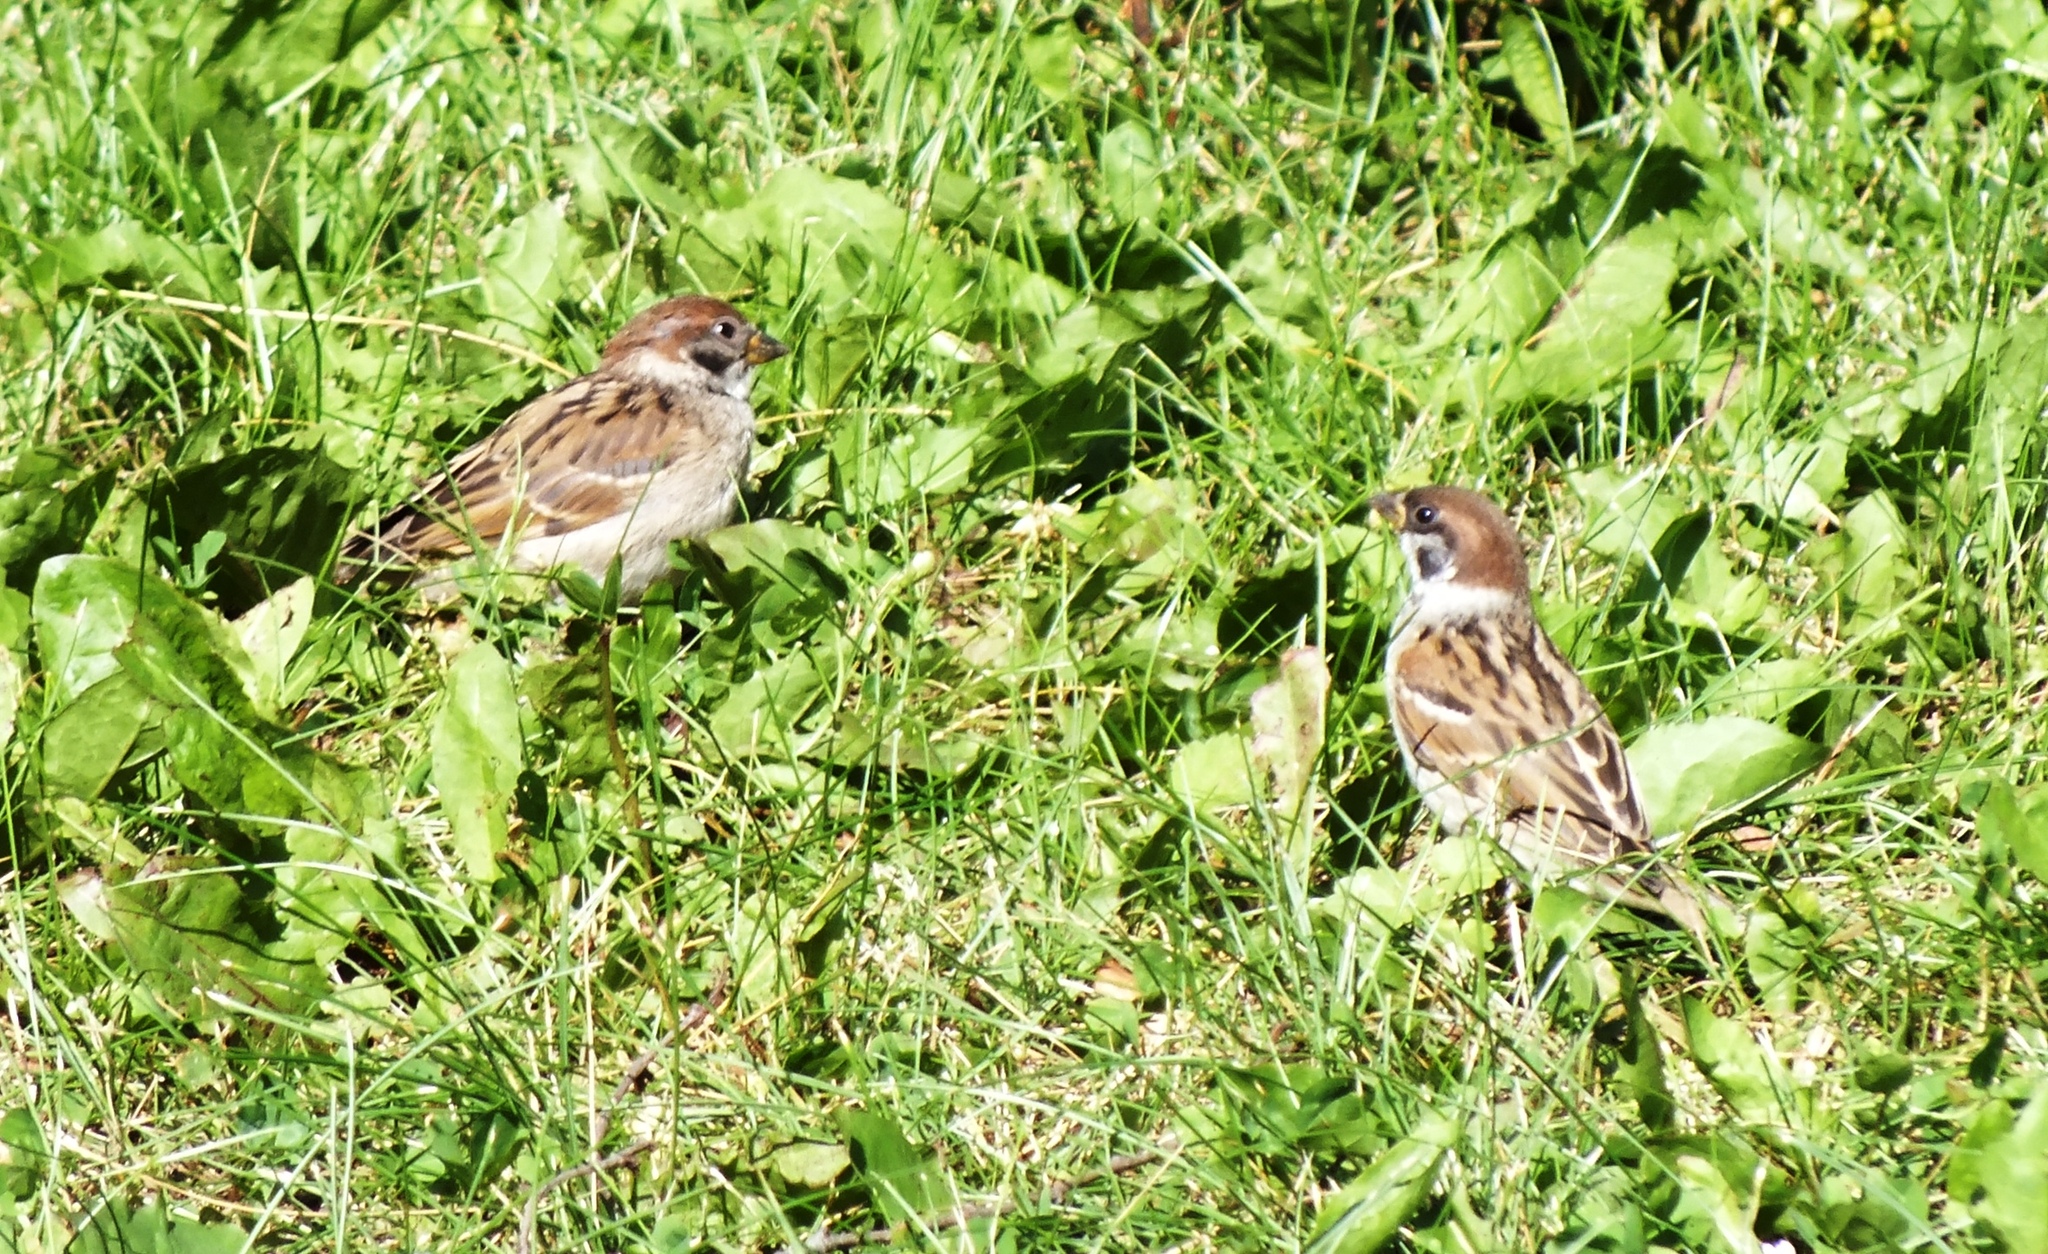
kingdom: Animalia
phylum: Chordata
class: Aves
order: Passeriformes
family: Passeridae
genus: Passer
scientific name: Passer montanus
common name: Eurasian tree sparrow
